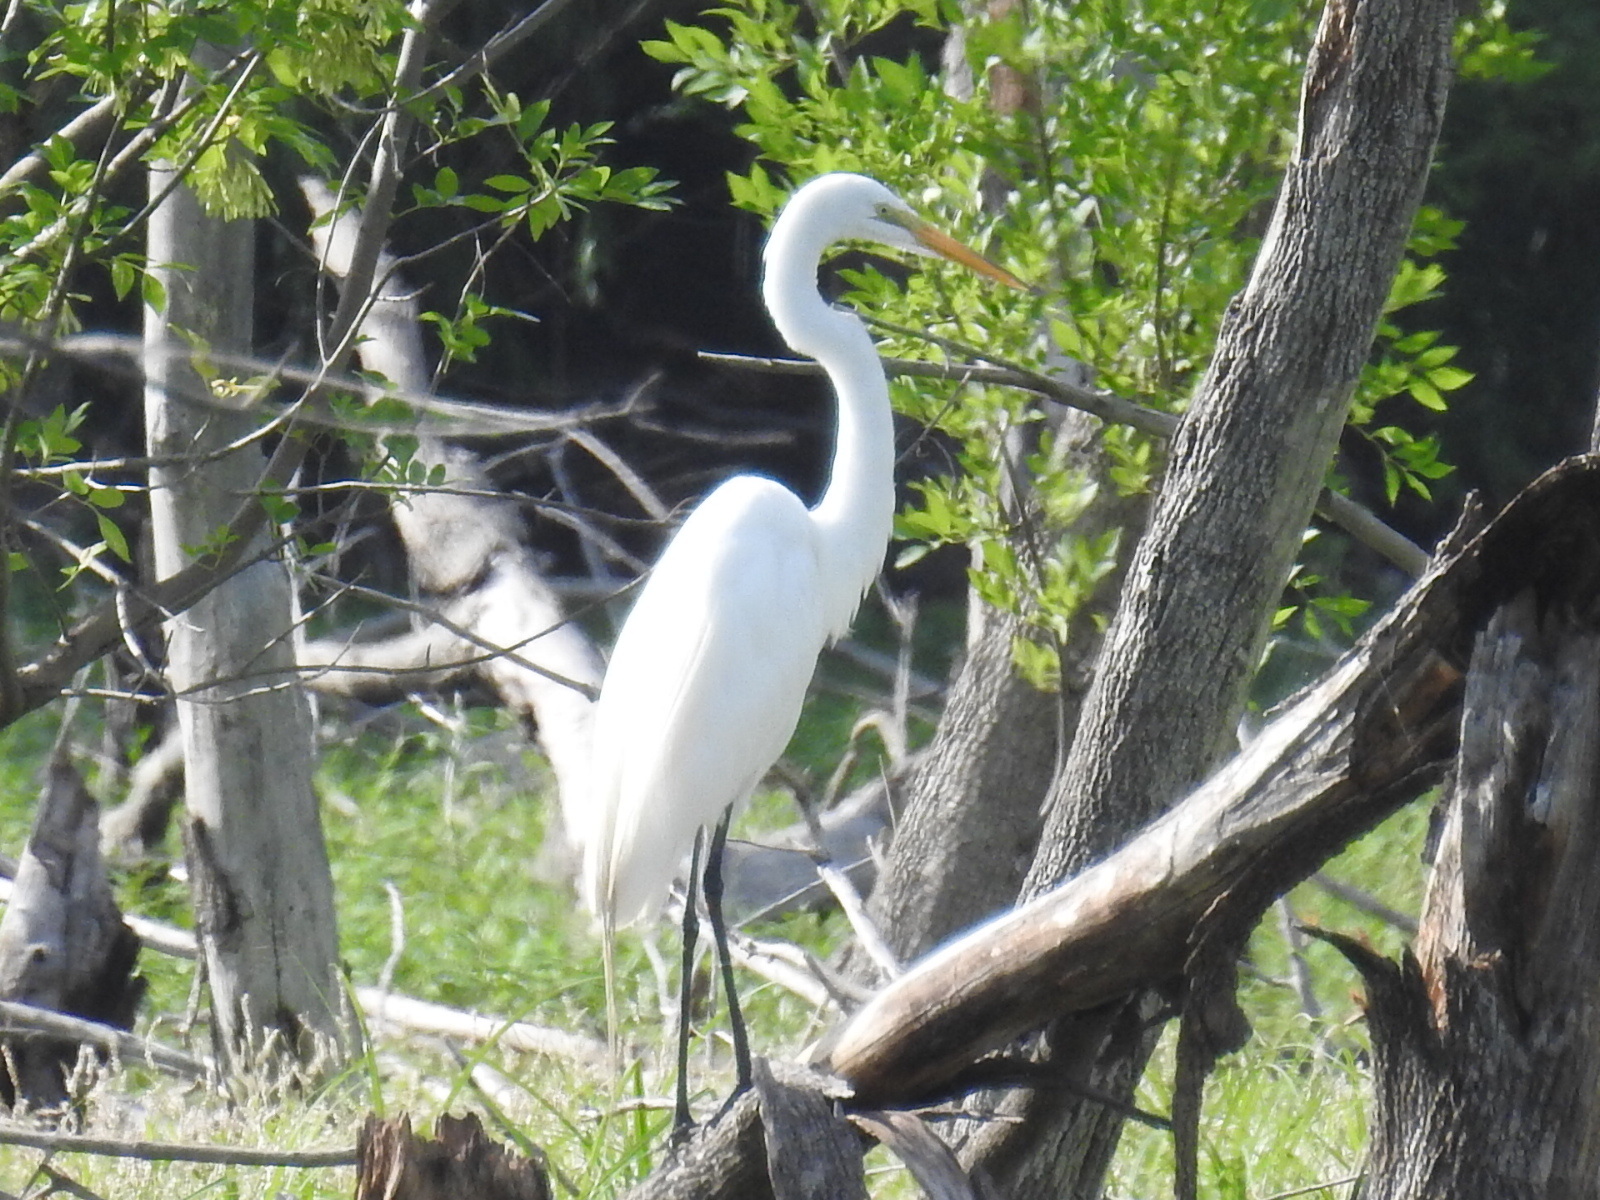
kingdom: Animalia
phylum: Chordata
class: Aves
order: Pelecaniformes
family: Ardeidae
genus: Ardea
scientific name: Ardea alba
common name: Great egret
